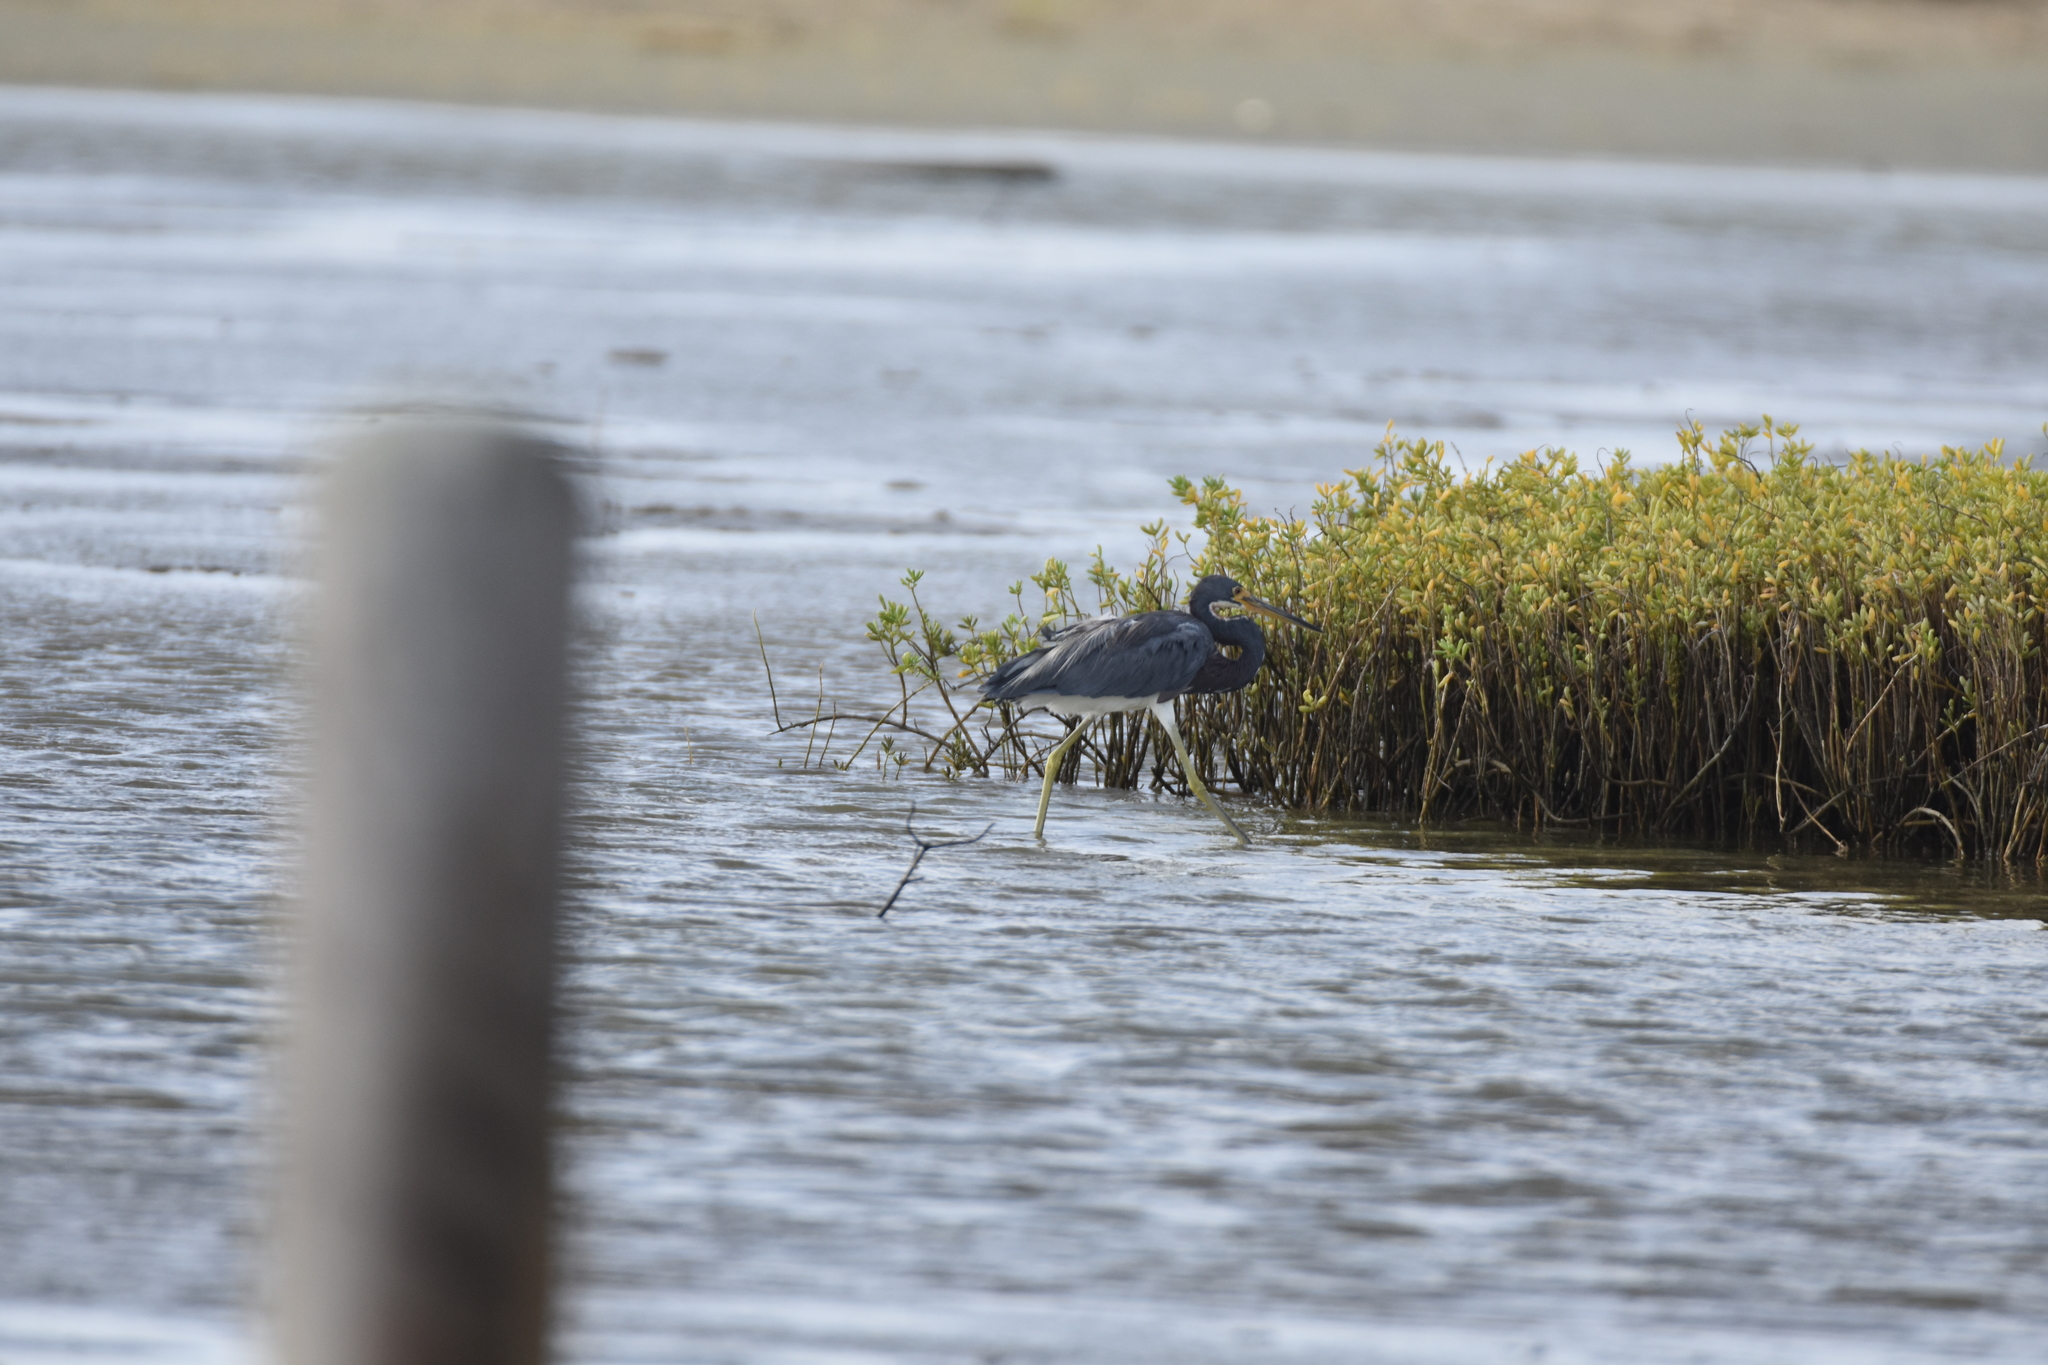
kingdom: Animalia
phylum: Chordata
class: Aves
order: Pelecaniformes
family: Ardeidae
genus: Egretta
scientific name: Egretta tricolor
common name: Tricolored heron
